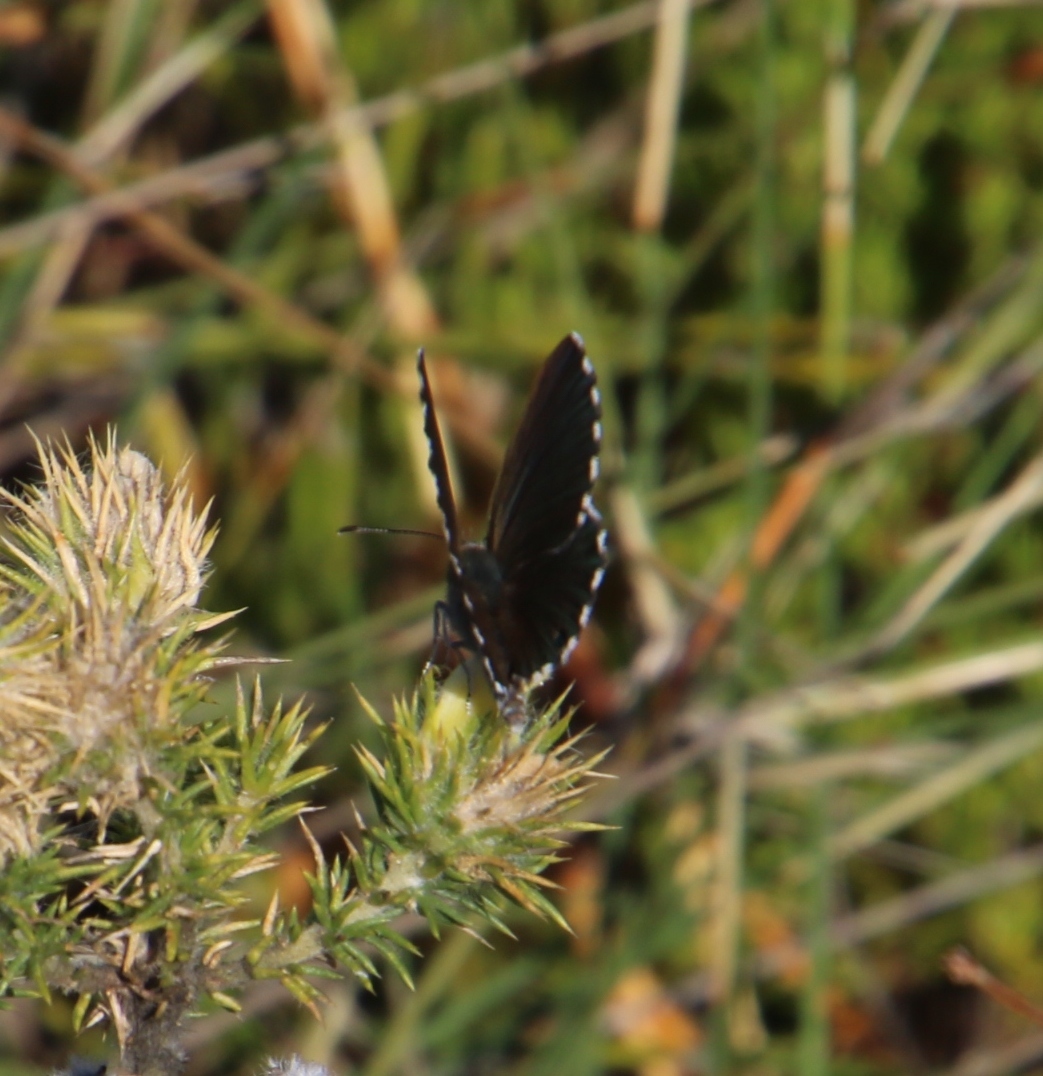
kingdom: Animalia
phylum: Arthropoda
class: Insecta
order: Lepidoptera
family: Lycaenidae
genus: Lepidochrysops
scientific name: Lepidochrysops
